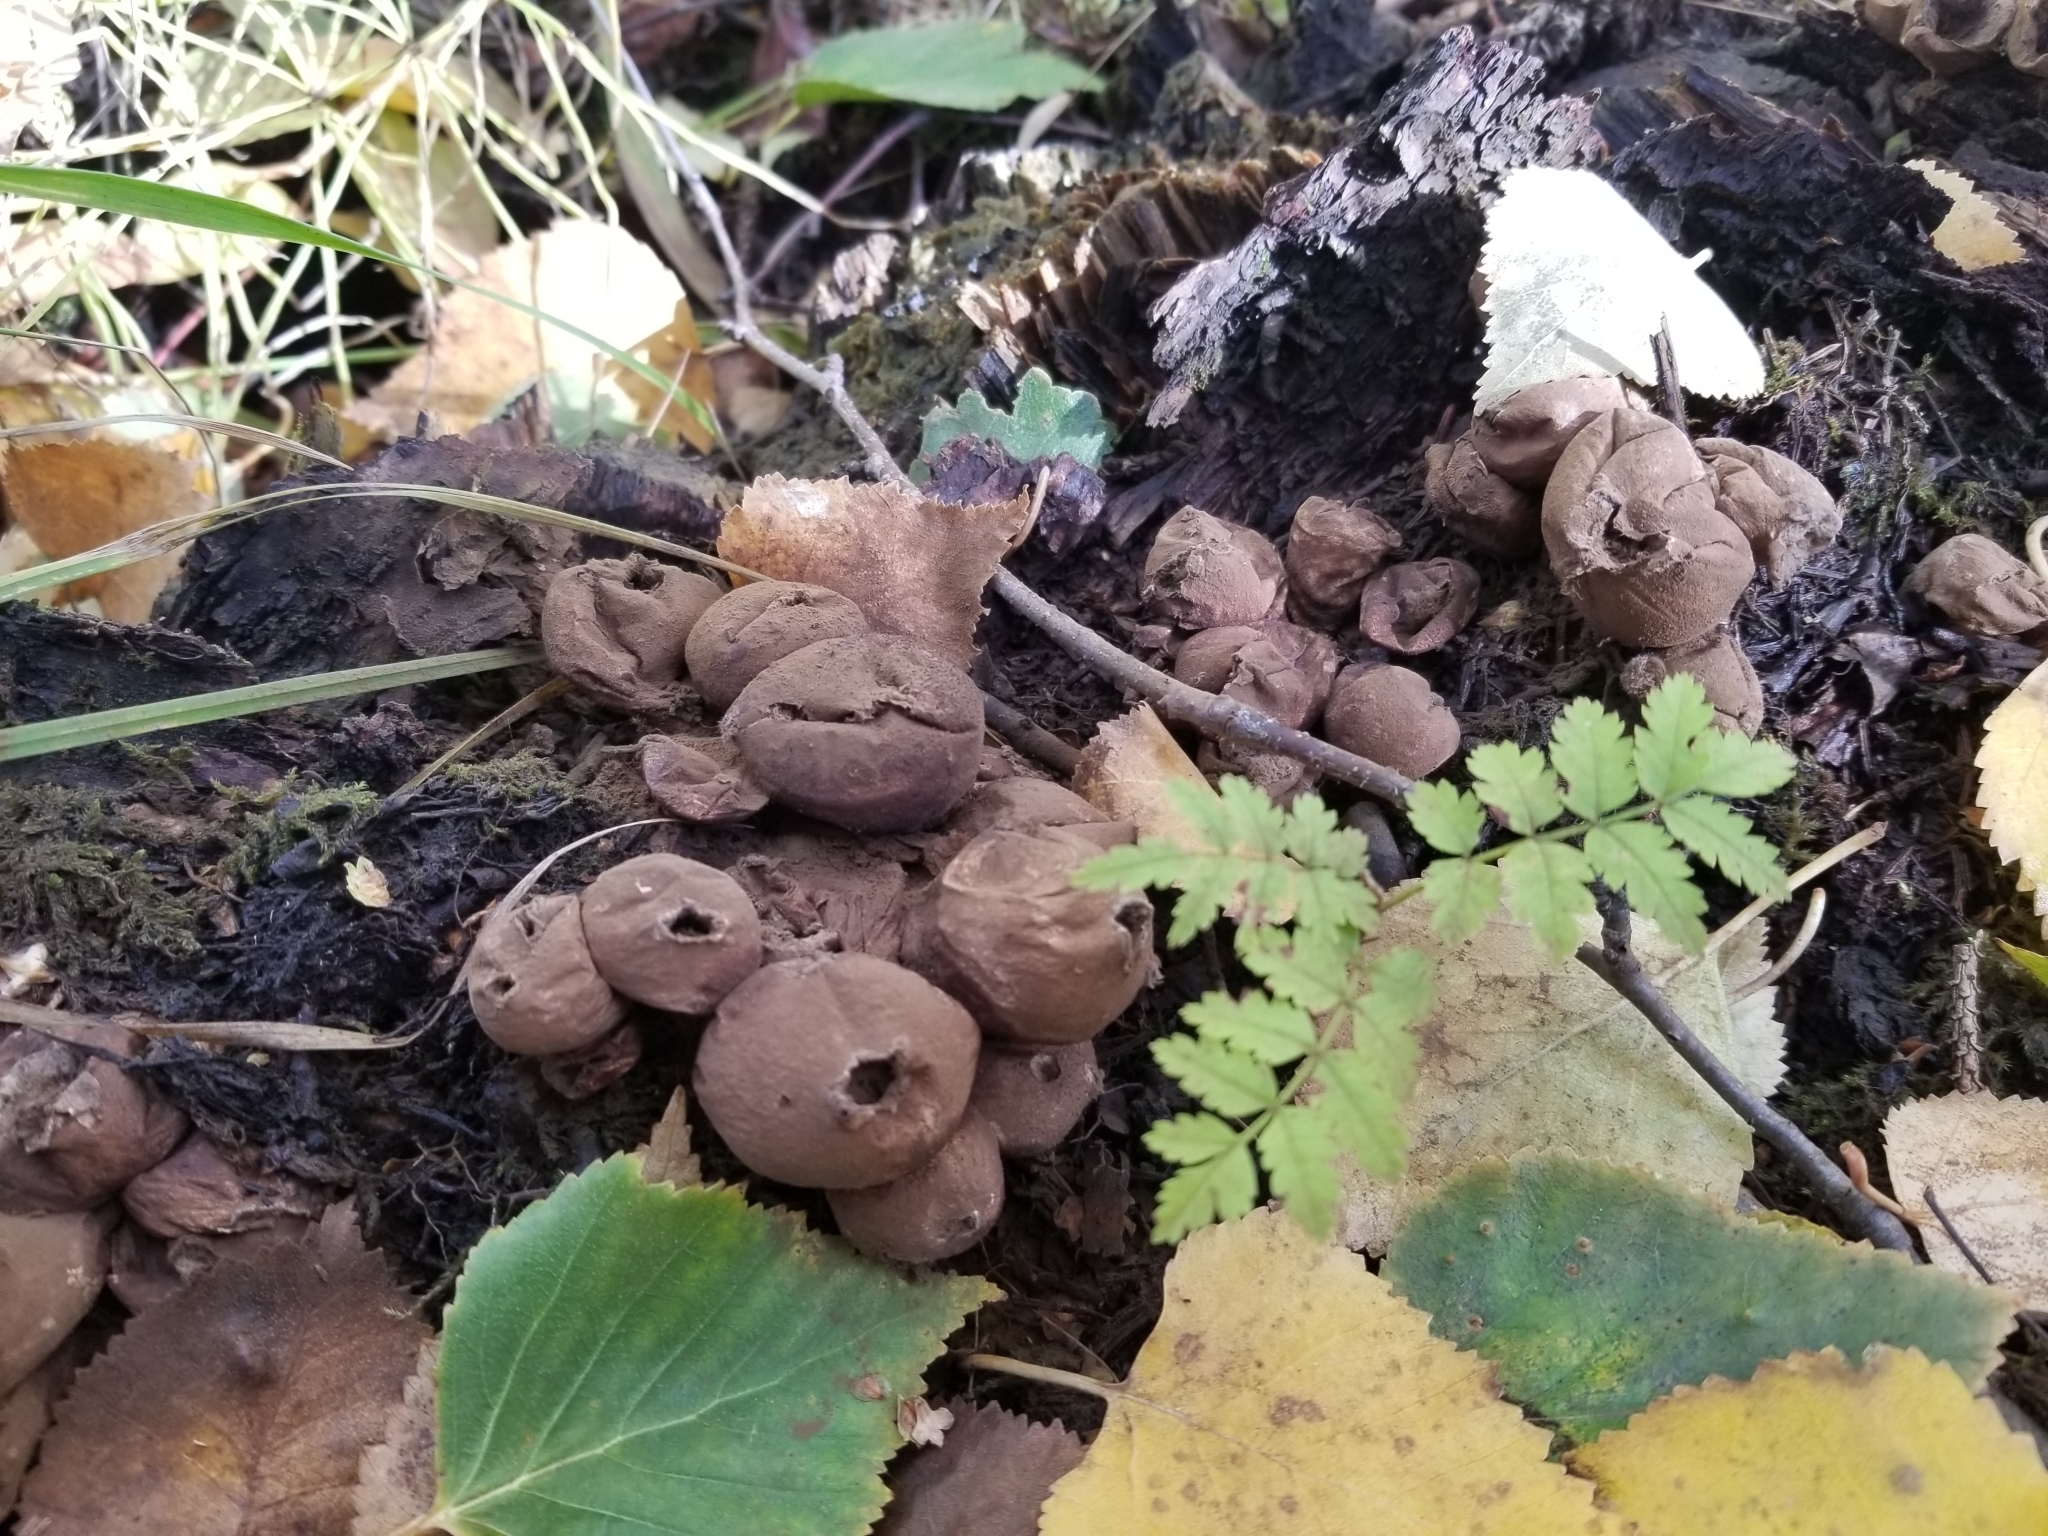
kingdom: Fungi
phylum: Basidiomycota
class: Agaricomycetes
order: Agaricales
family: Lycoperdaceae
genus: Apioperdon
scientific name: Apioperdon pyriforme
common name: Pear-shaped puffball
